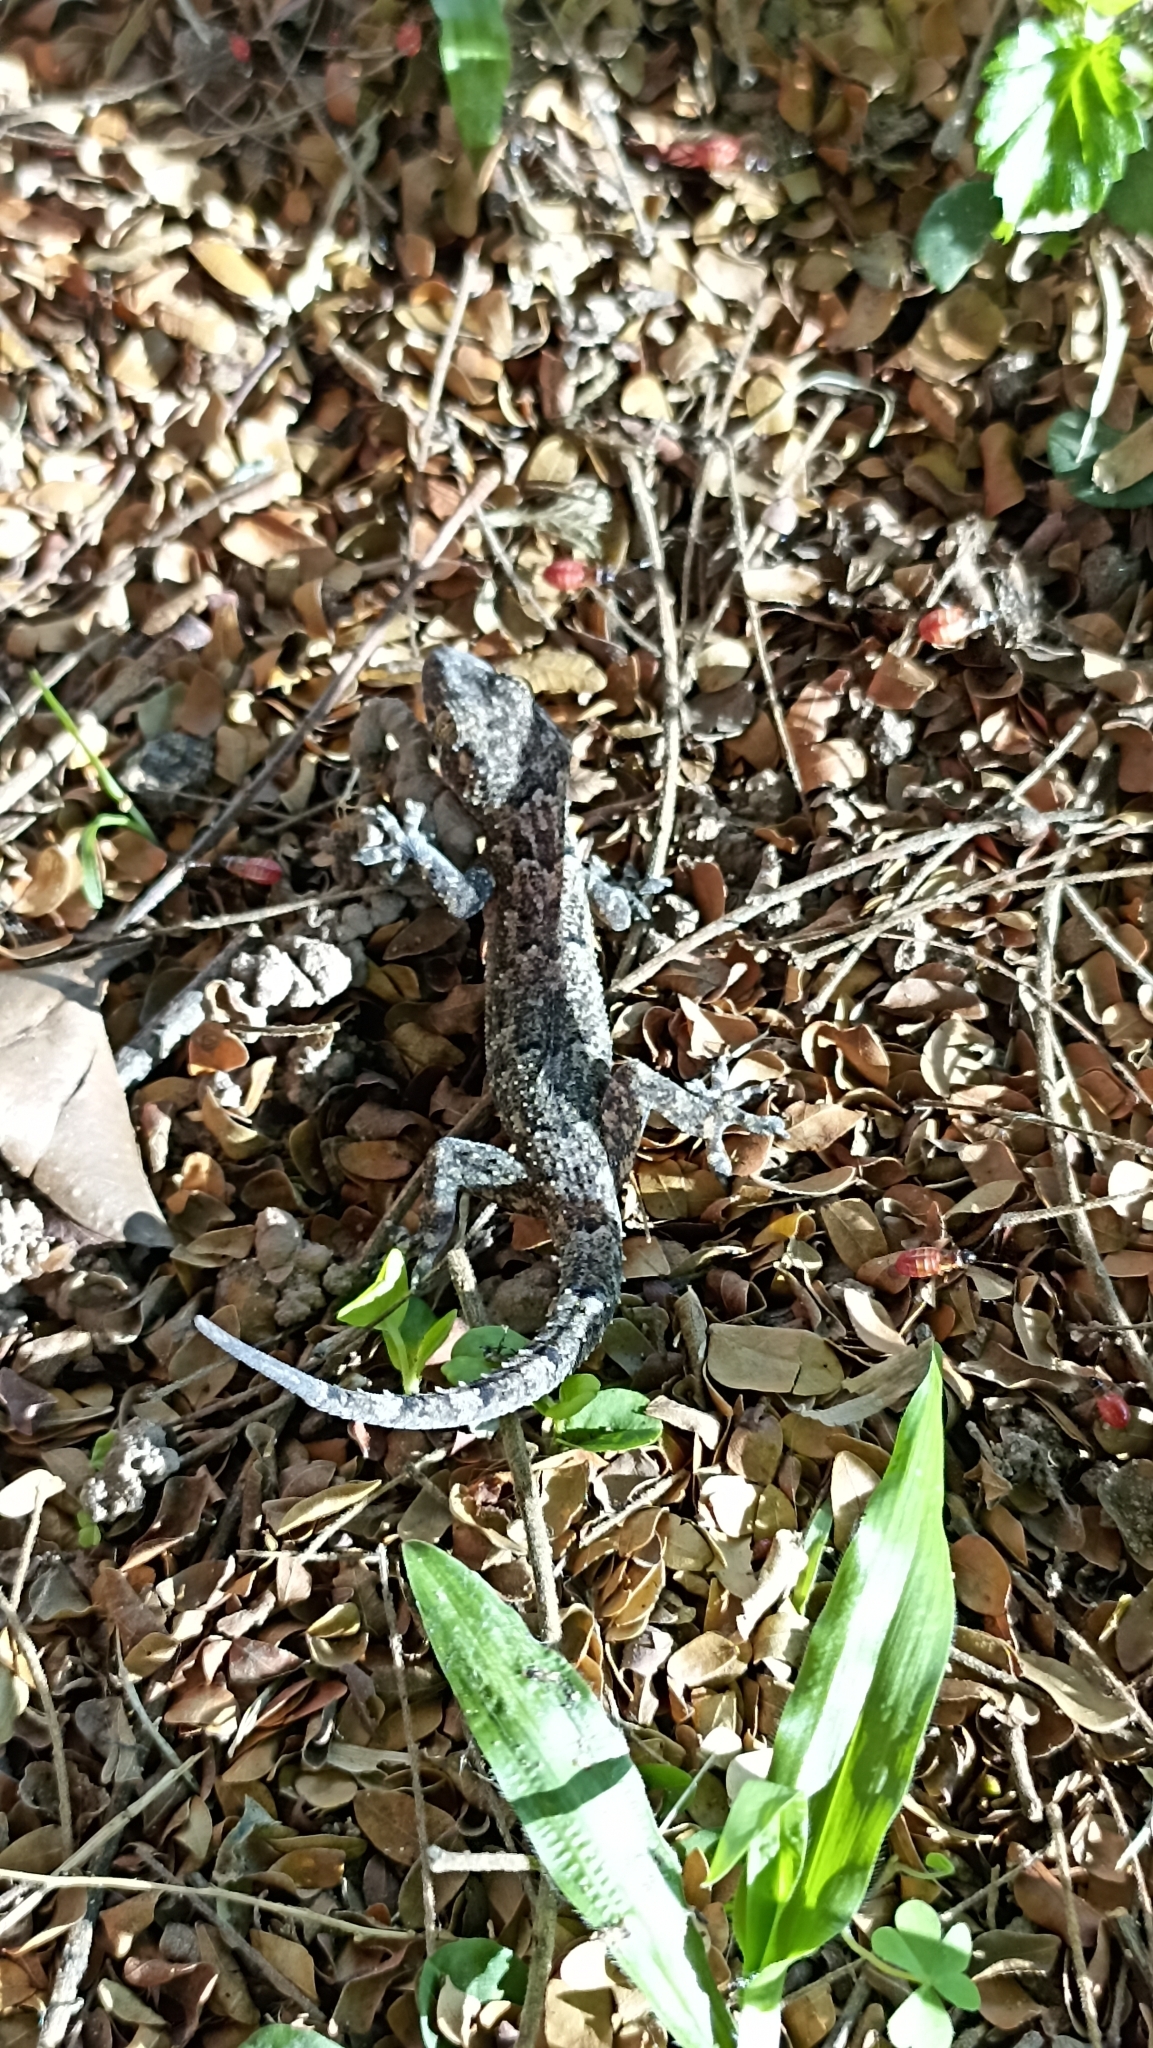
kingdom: Animalia
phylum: Chordata
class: Squamata
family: Gekkonidae
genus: Hemidactylus
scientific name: Hemidactylus mabouia
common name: House gecko
